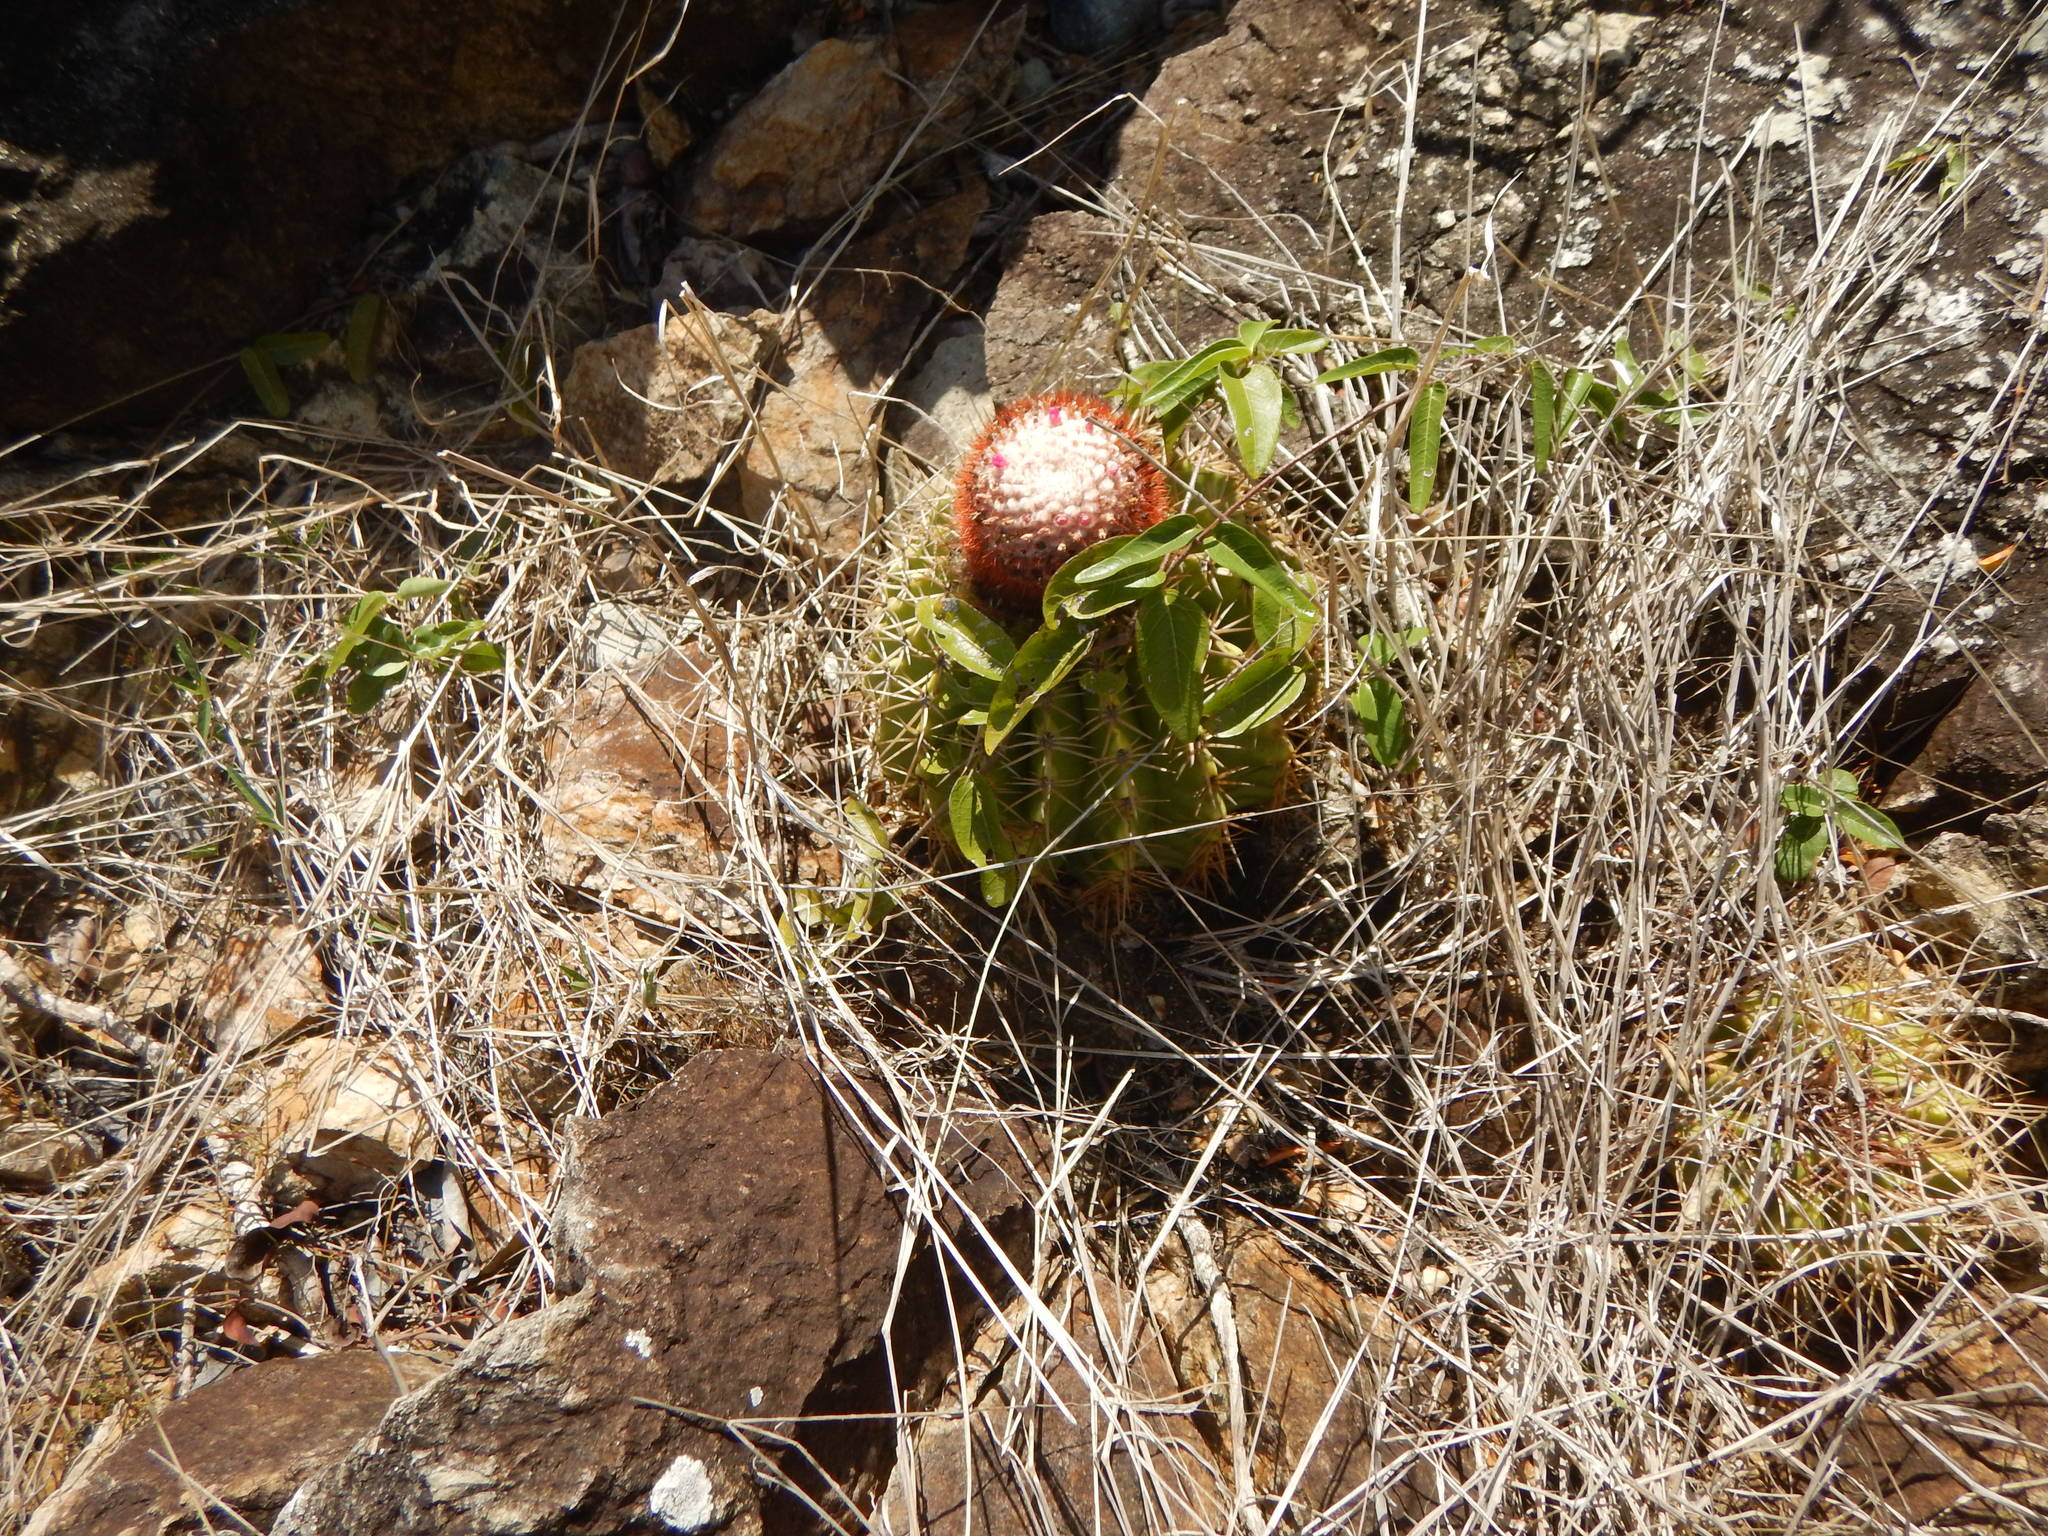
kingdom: Plantae
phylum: Tracheophyta
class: Magnoliopsida
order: Caryophyllales
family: Cactaceae
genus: Melocactus
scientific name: Melocactus intortus
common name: Barrel cactus
